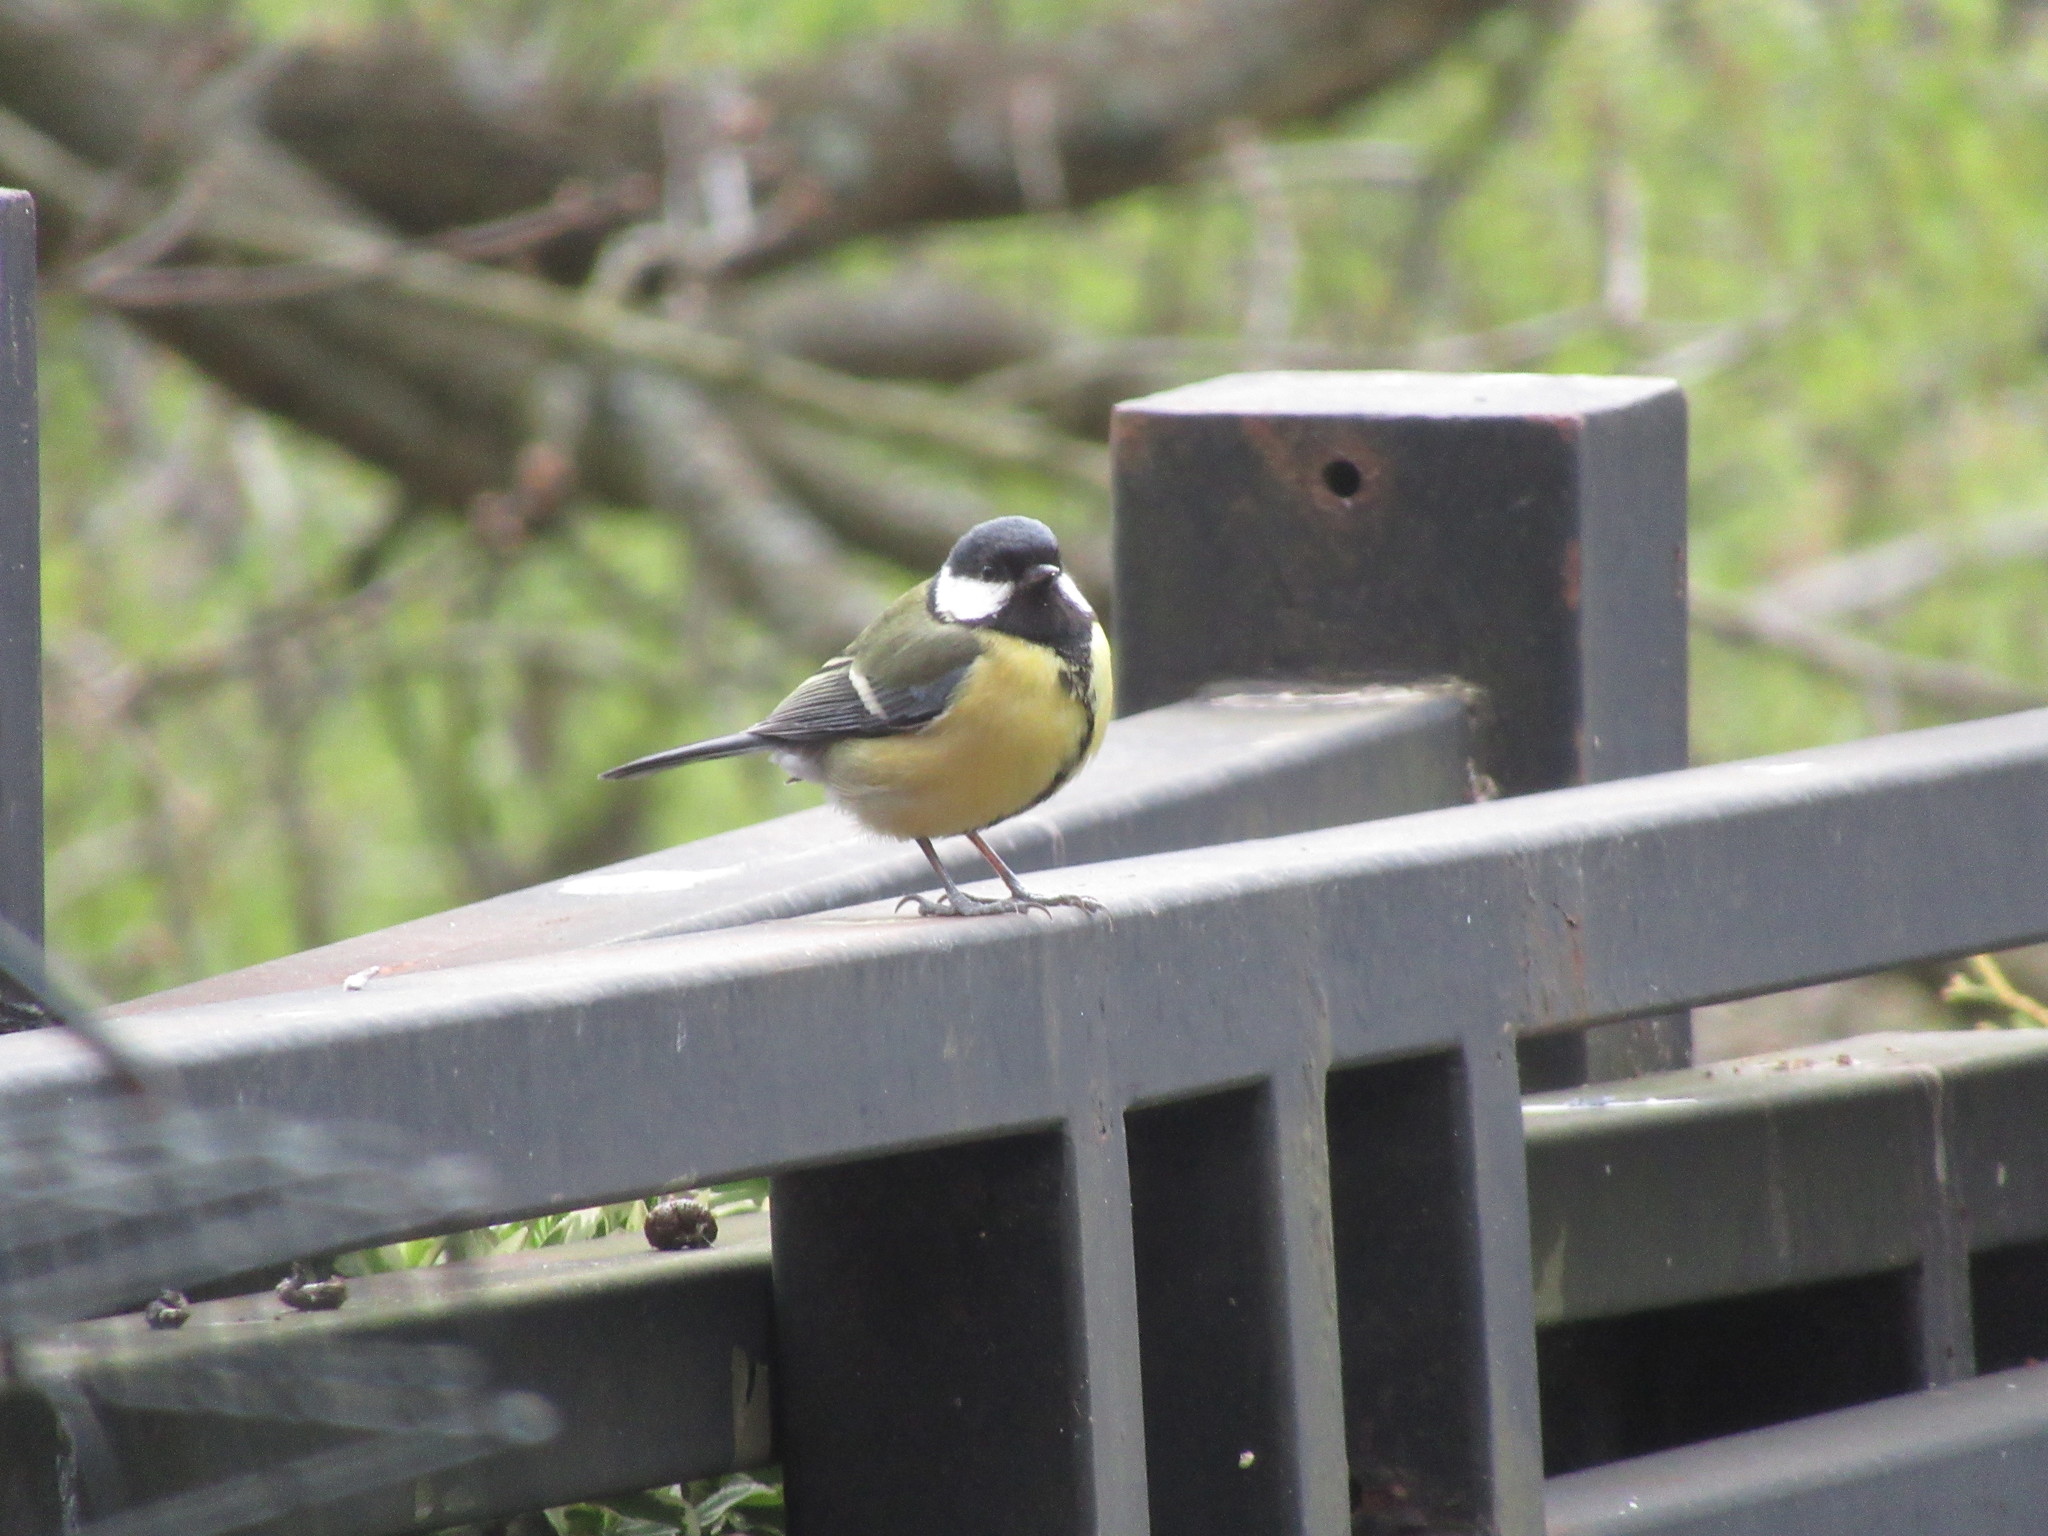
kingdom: Animalia
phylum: Chordata
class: Aves
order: Passeriformes
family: Paridae
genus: Parus
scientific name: Parus major
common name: Great tit
